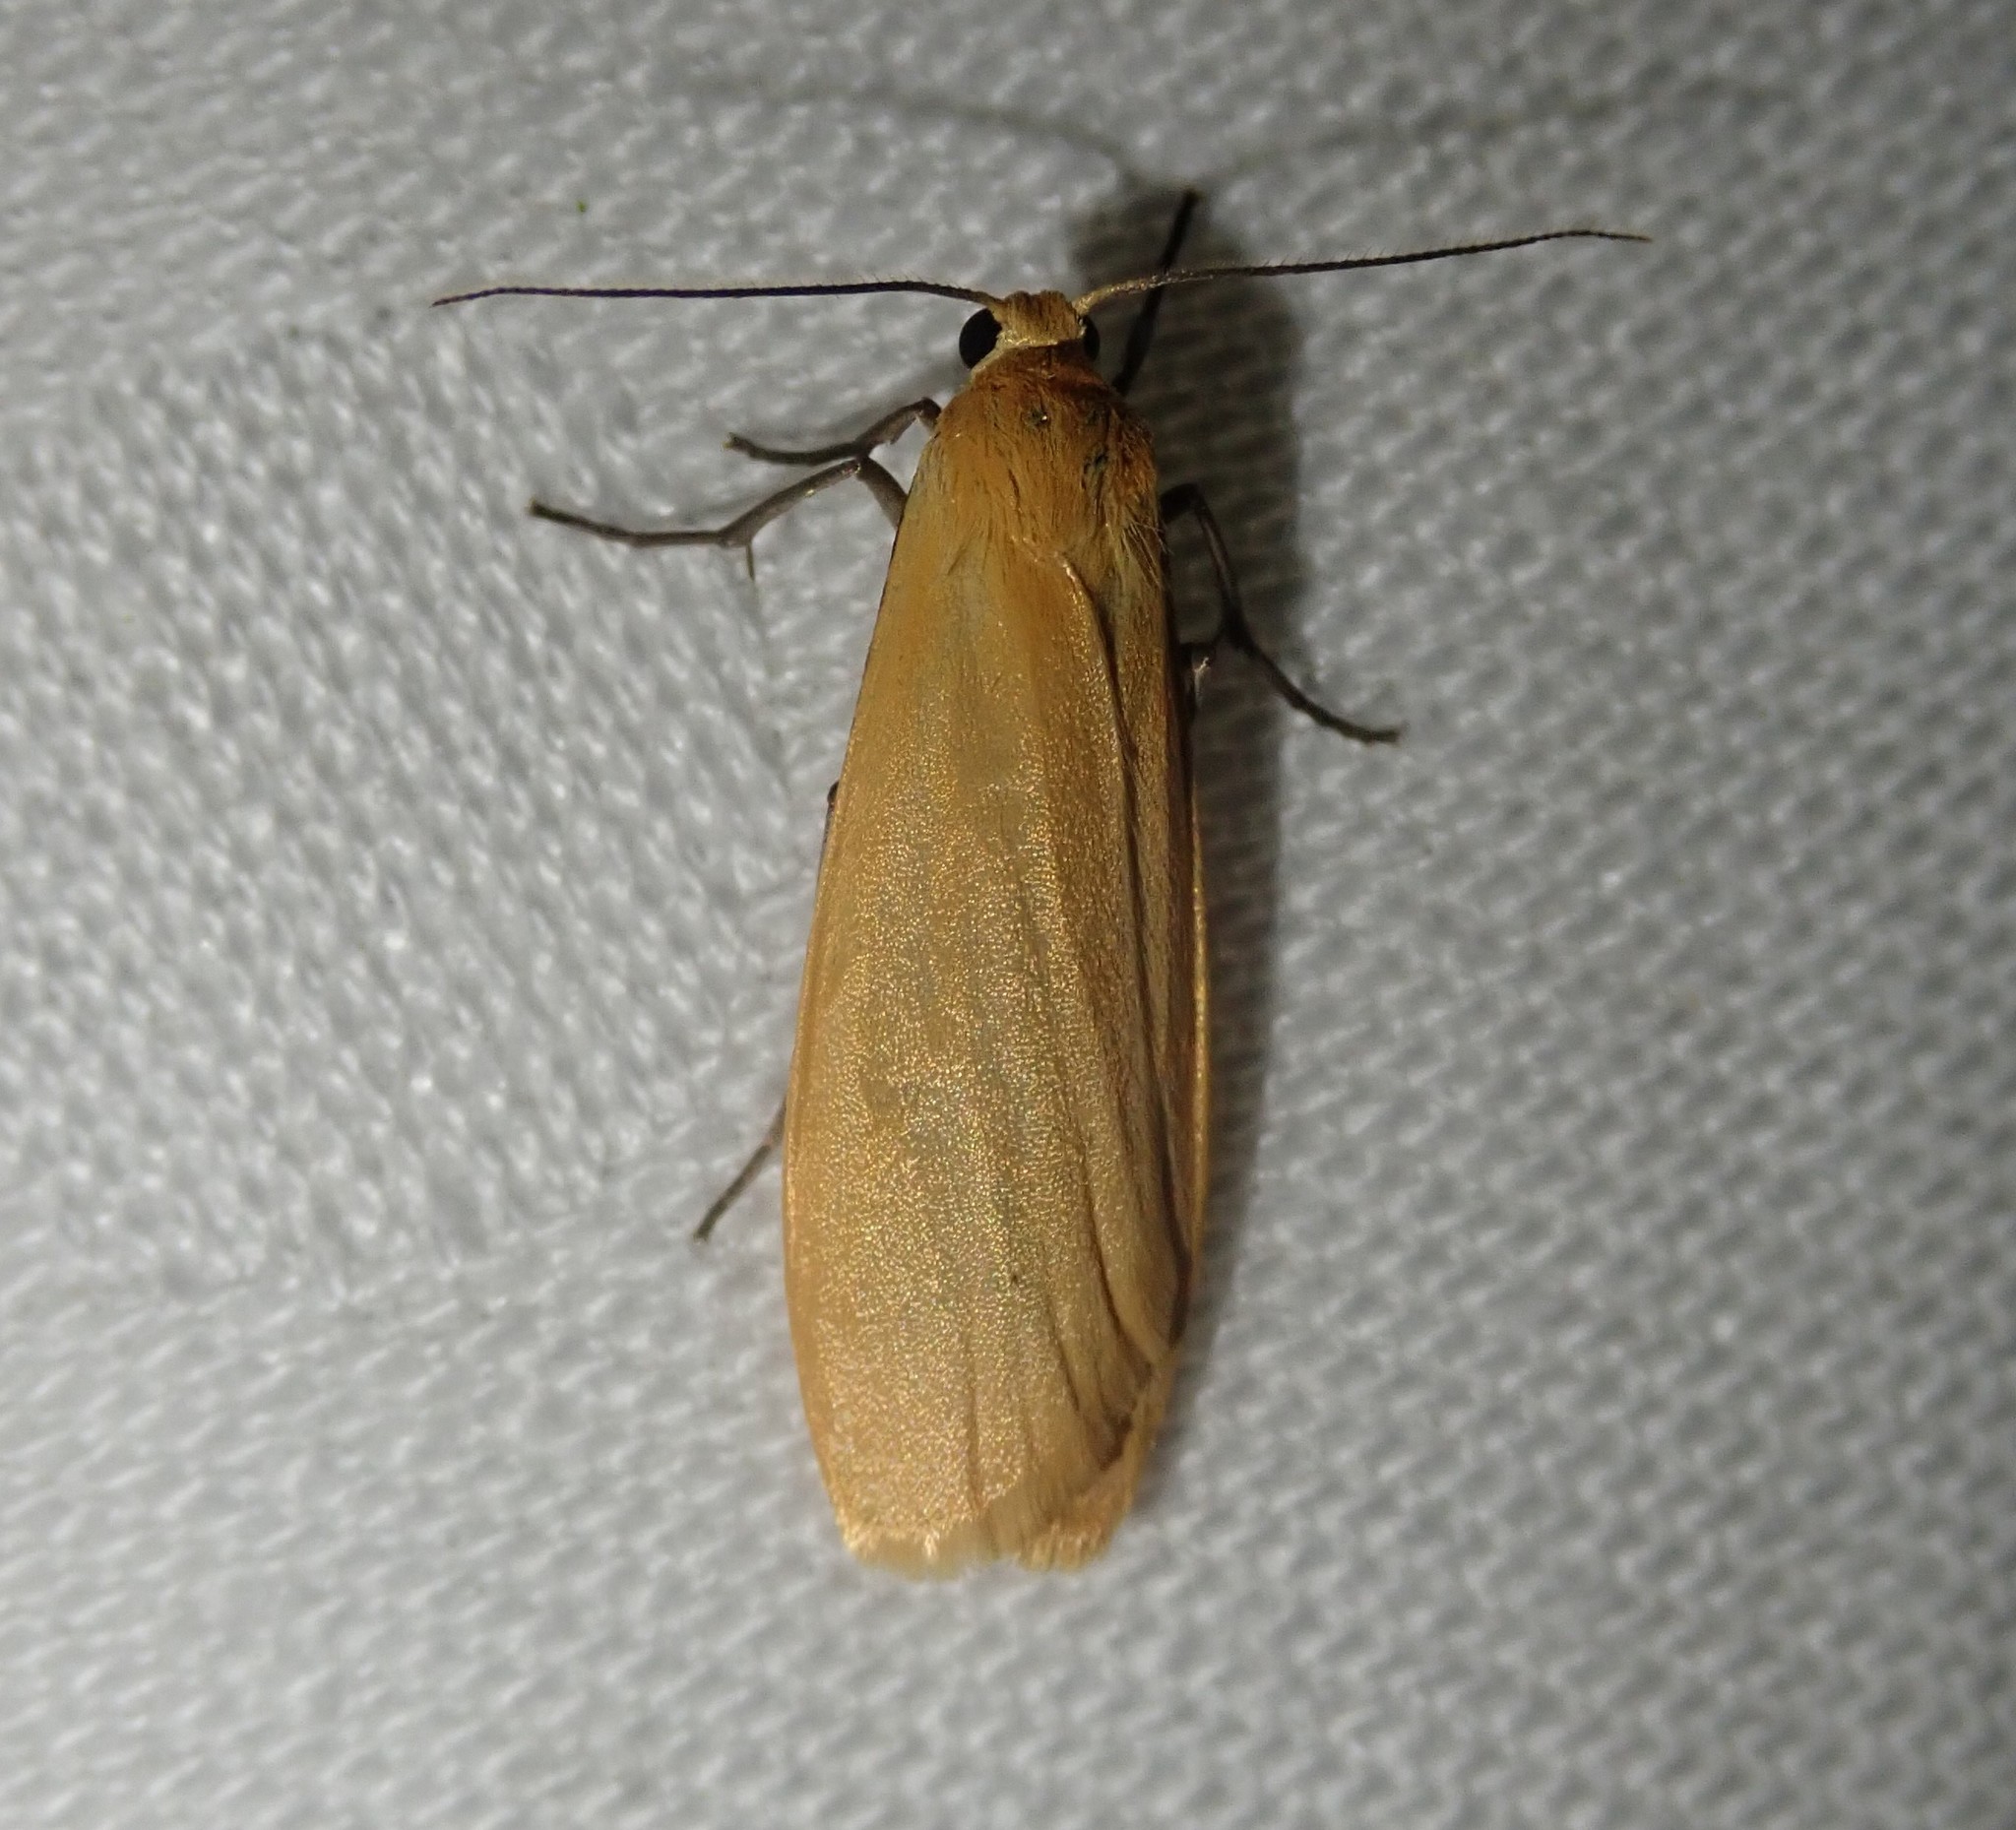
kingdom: Animalia
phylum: Arthropoda
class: Insecta
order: Lepidoptera
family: Erebidae
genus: Wittia
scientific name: Wittia sororcula
